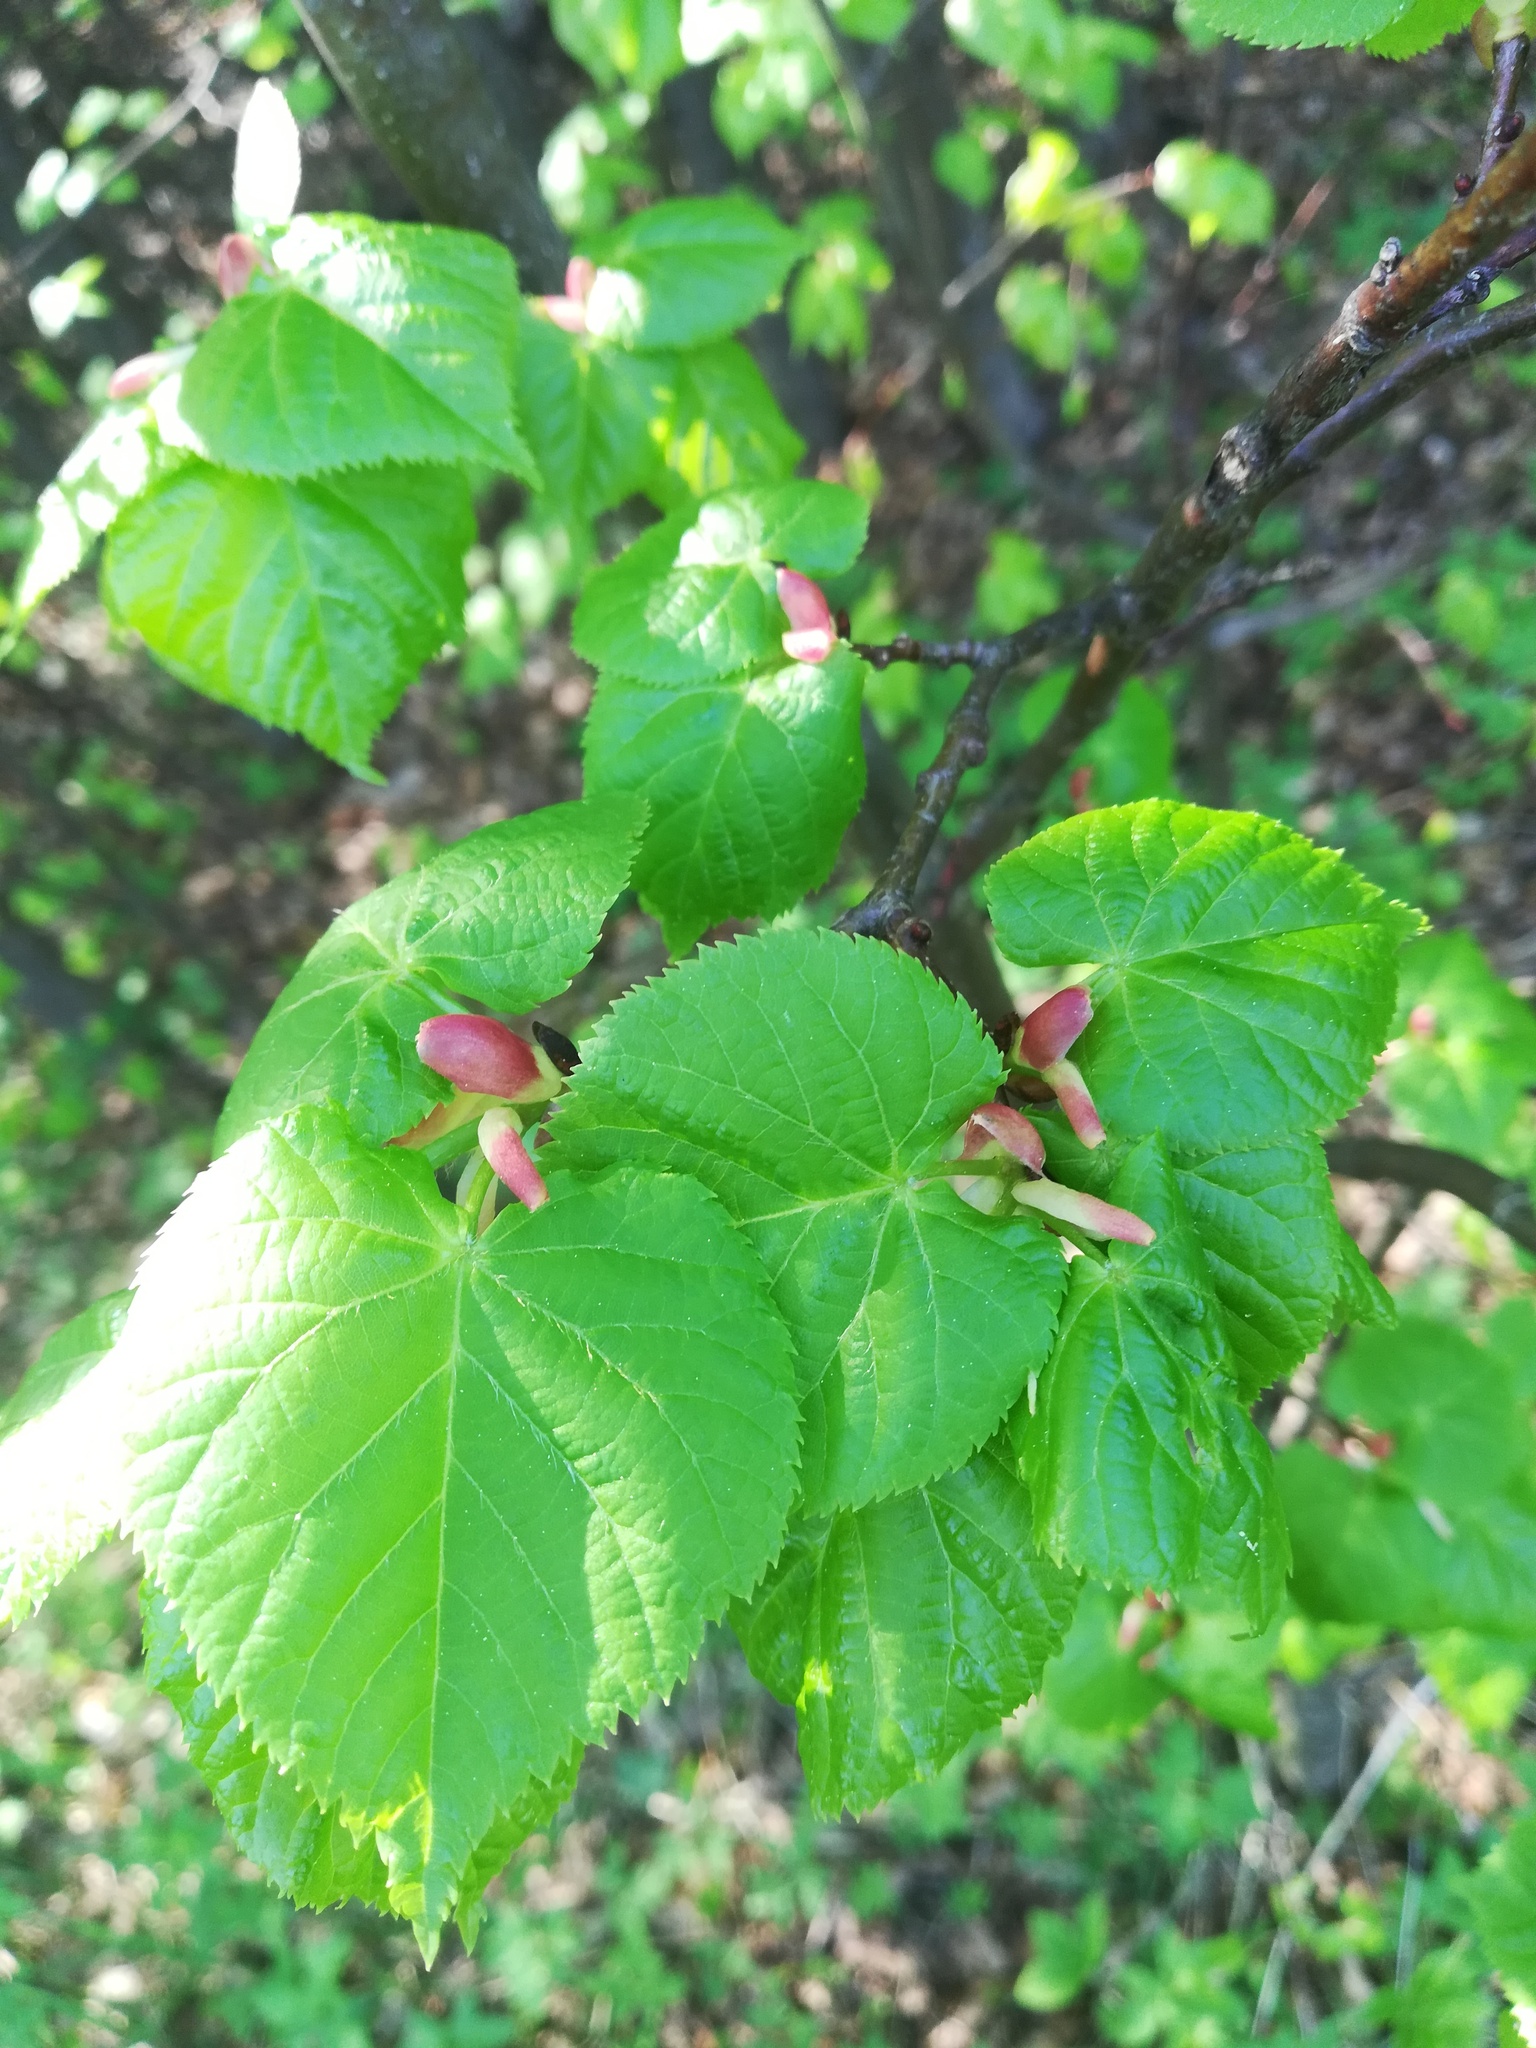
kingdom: Plantae
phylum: Tracheophyta
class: Magnoliopsida
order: Malvales
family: Malvaceae
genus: Tilia
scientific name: Tilia cordata
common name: Small-leaved lime
